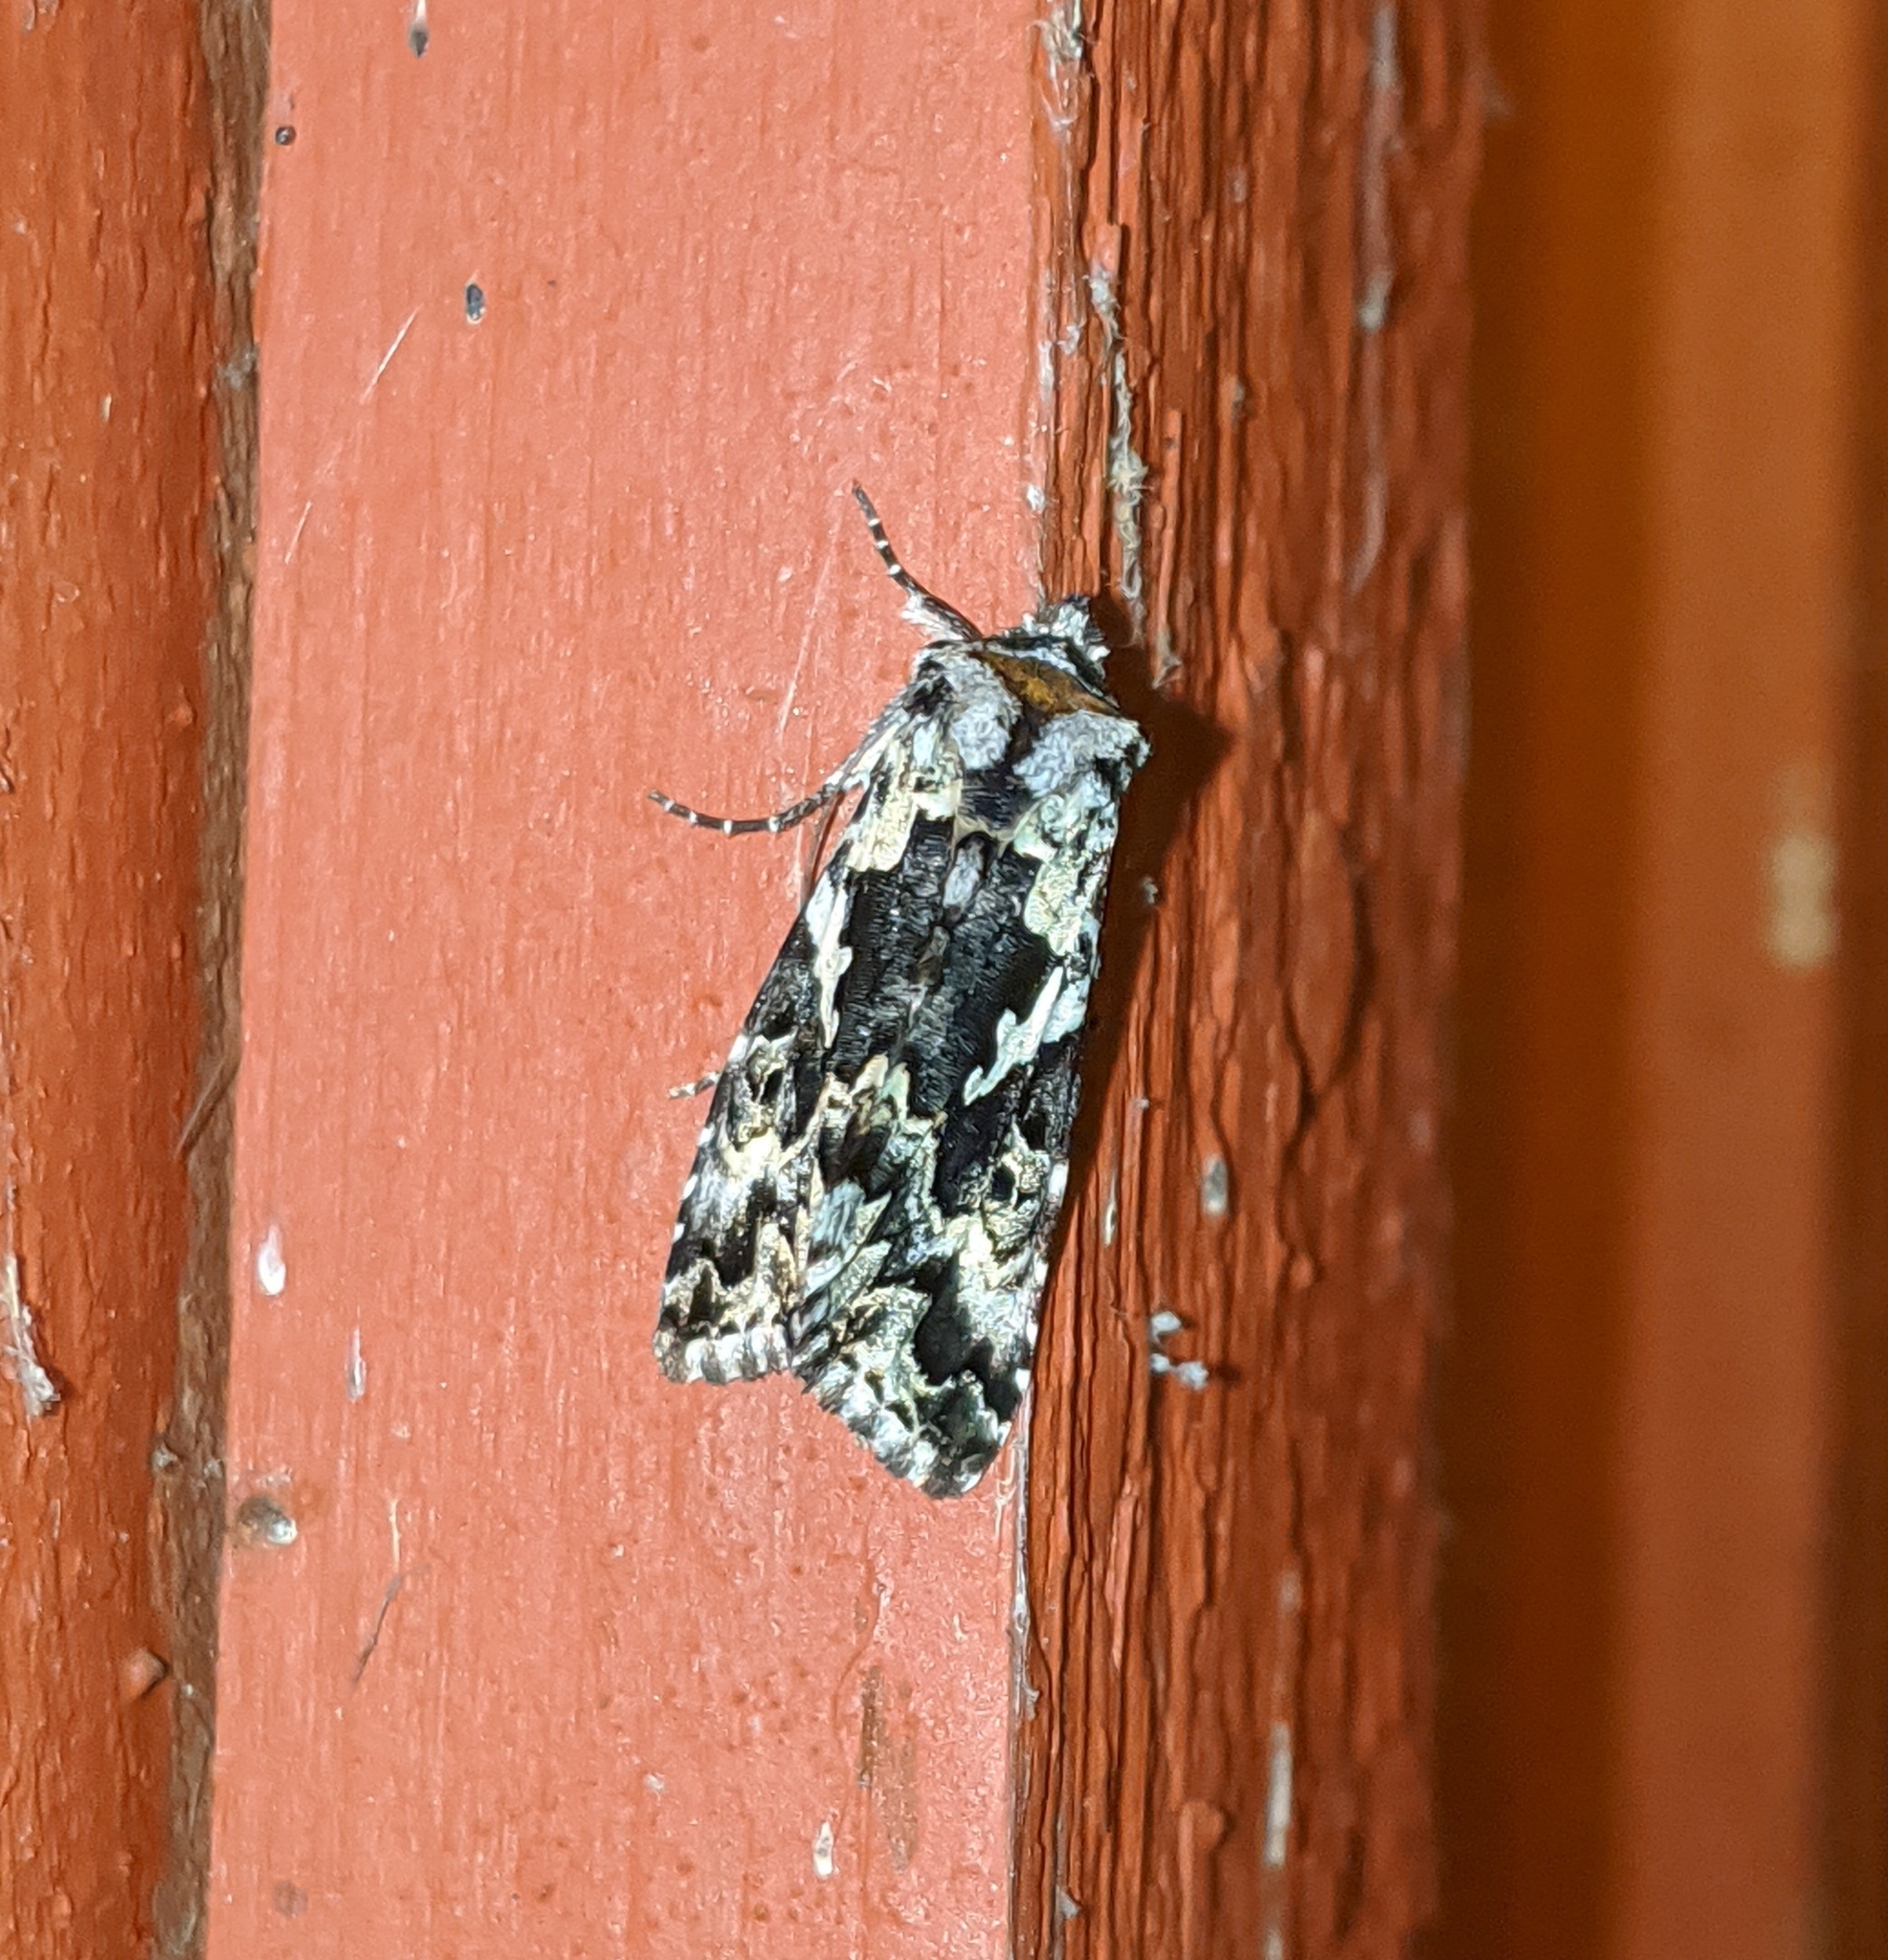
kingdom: Animalia
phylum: Arthropoda
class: Insecta
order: Lepidoptera
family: Noctuidae
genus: Syngrapha
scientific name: Syngrapha rectangula
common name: Angulated cutworm
